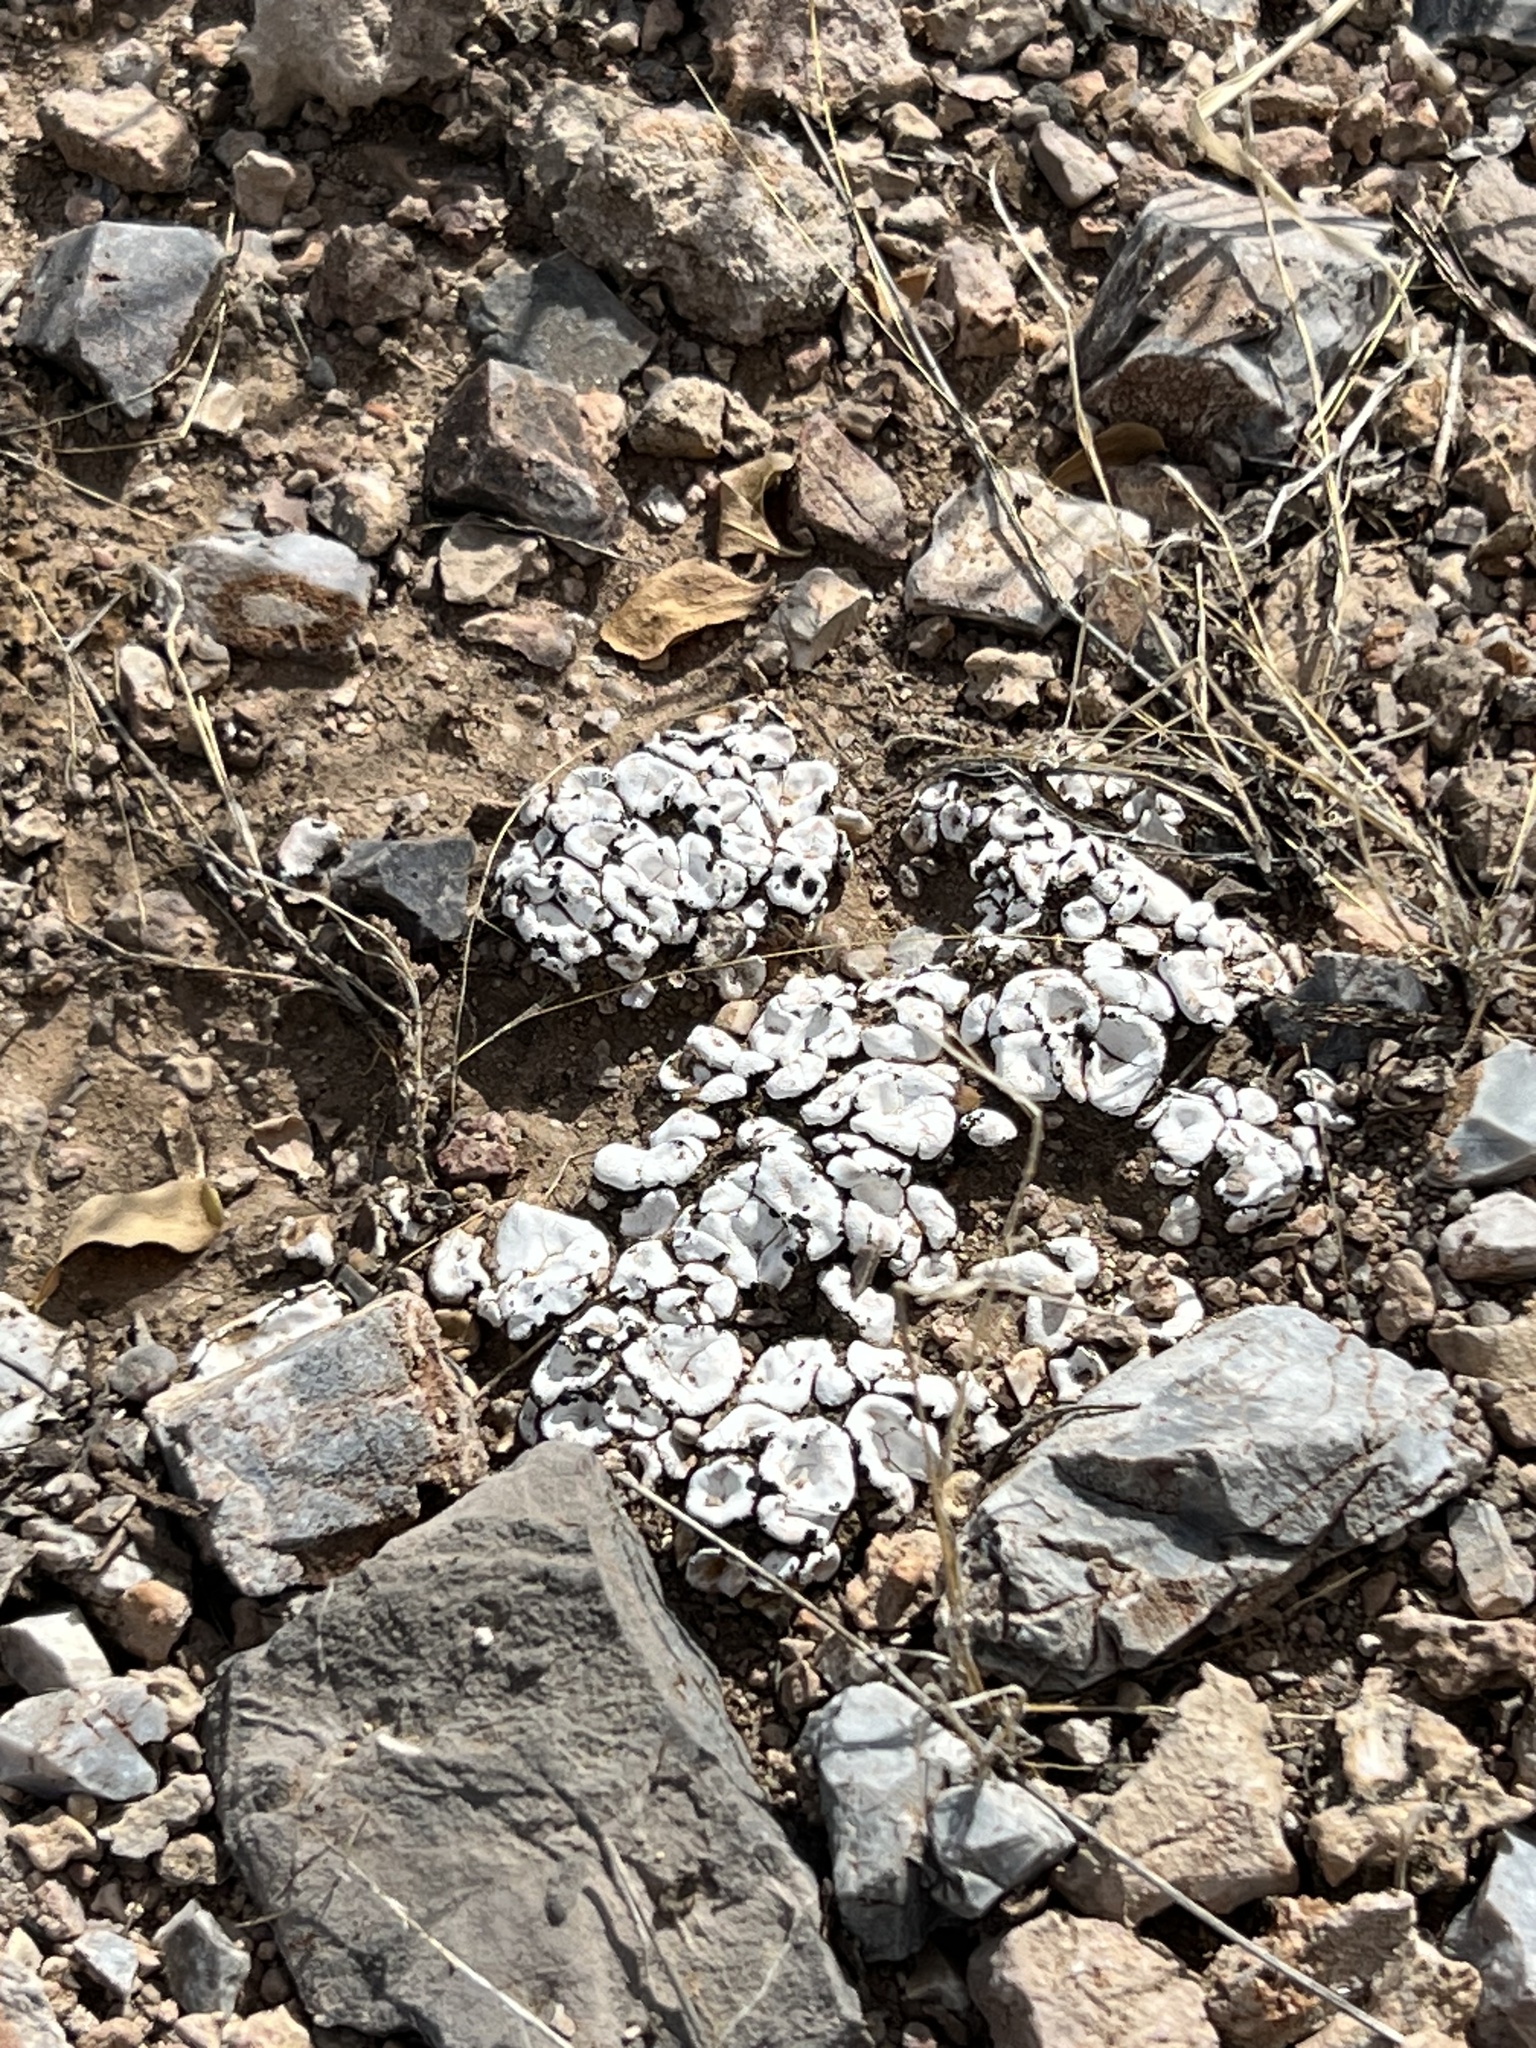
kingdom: Fungi
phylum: Ascomycota
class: Lecanoromycetes
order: Lecanorales
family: Psoraceae
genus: Psora
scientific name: Psora crenata
